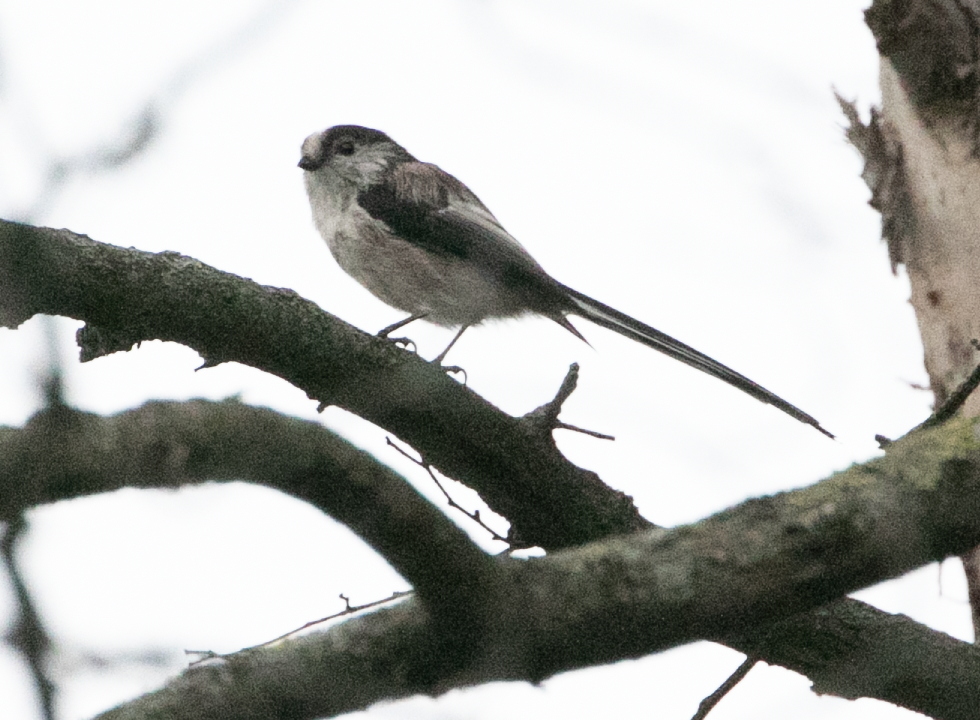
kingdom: Animalia
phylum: Chordata
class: Aves
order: Passeriformes
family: Aegithalidae
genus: Aegithalos
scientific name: Aegithalos caudatus
